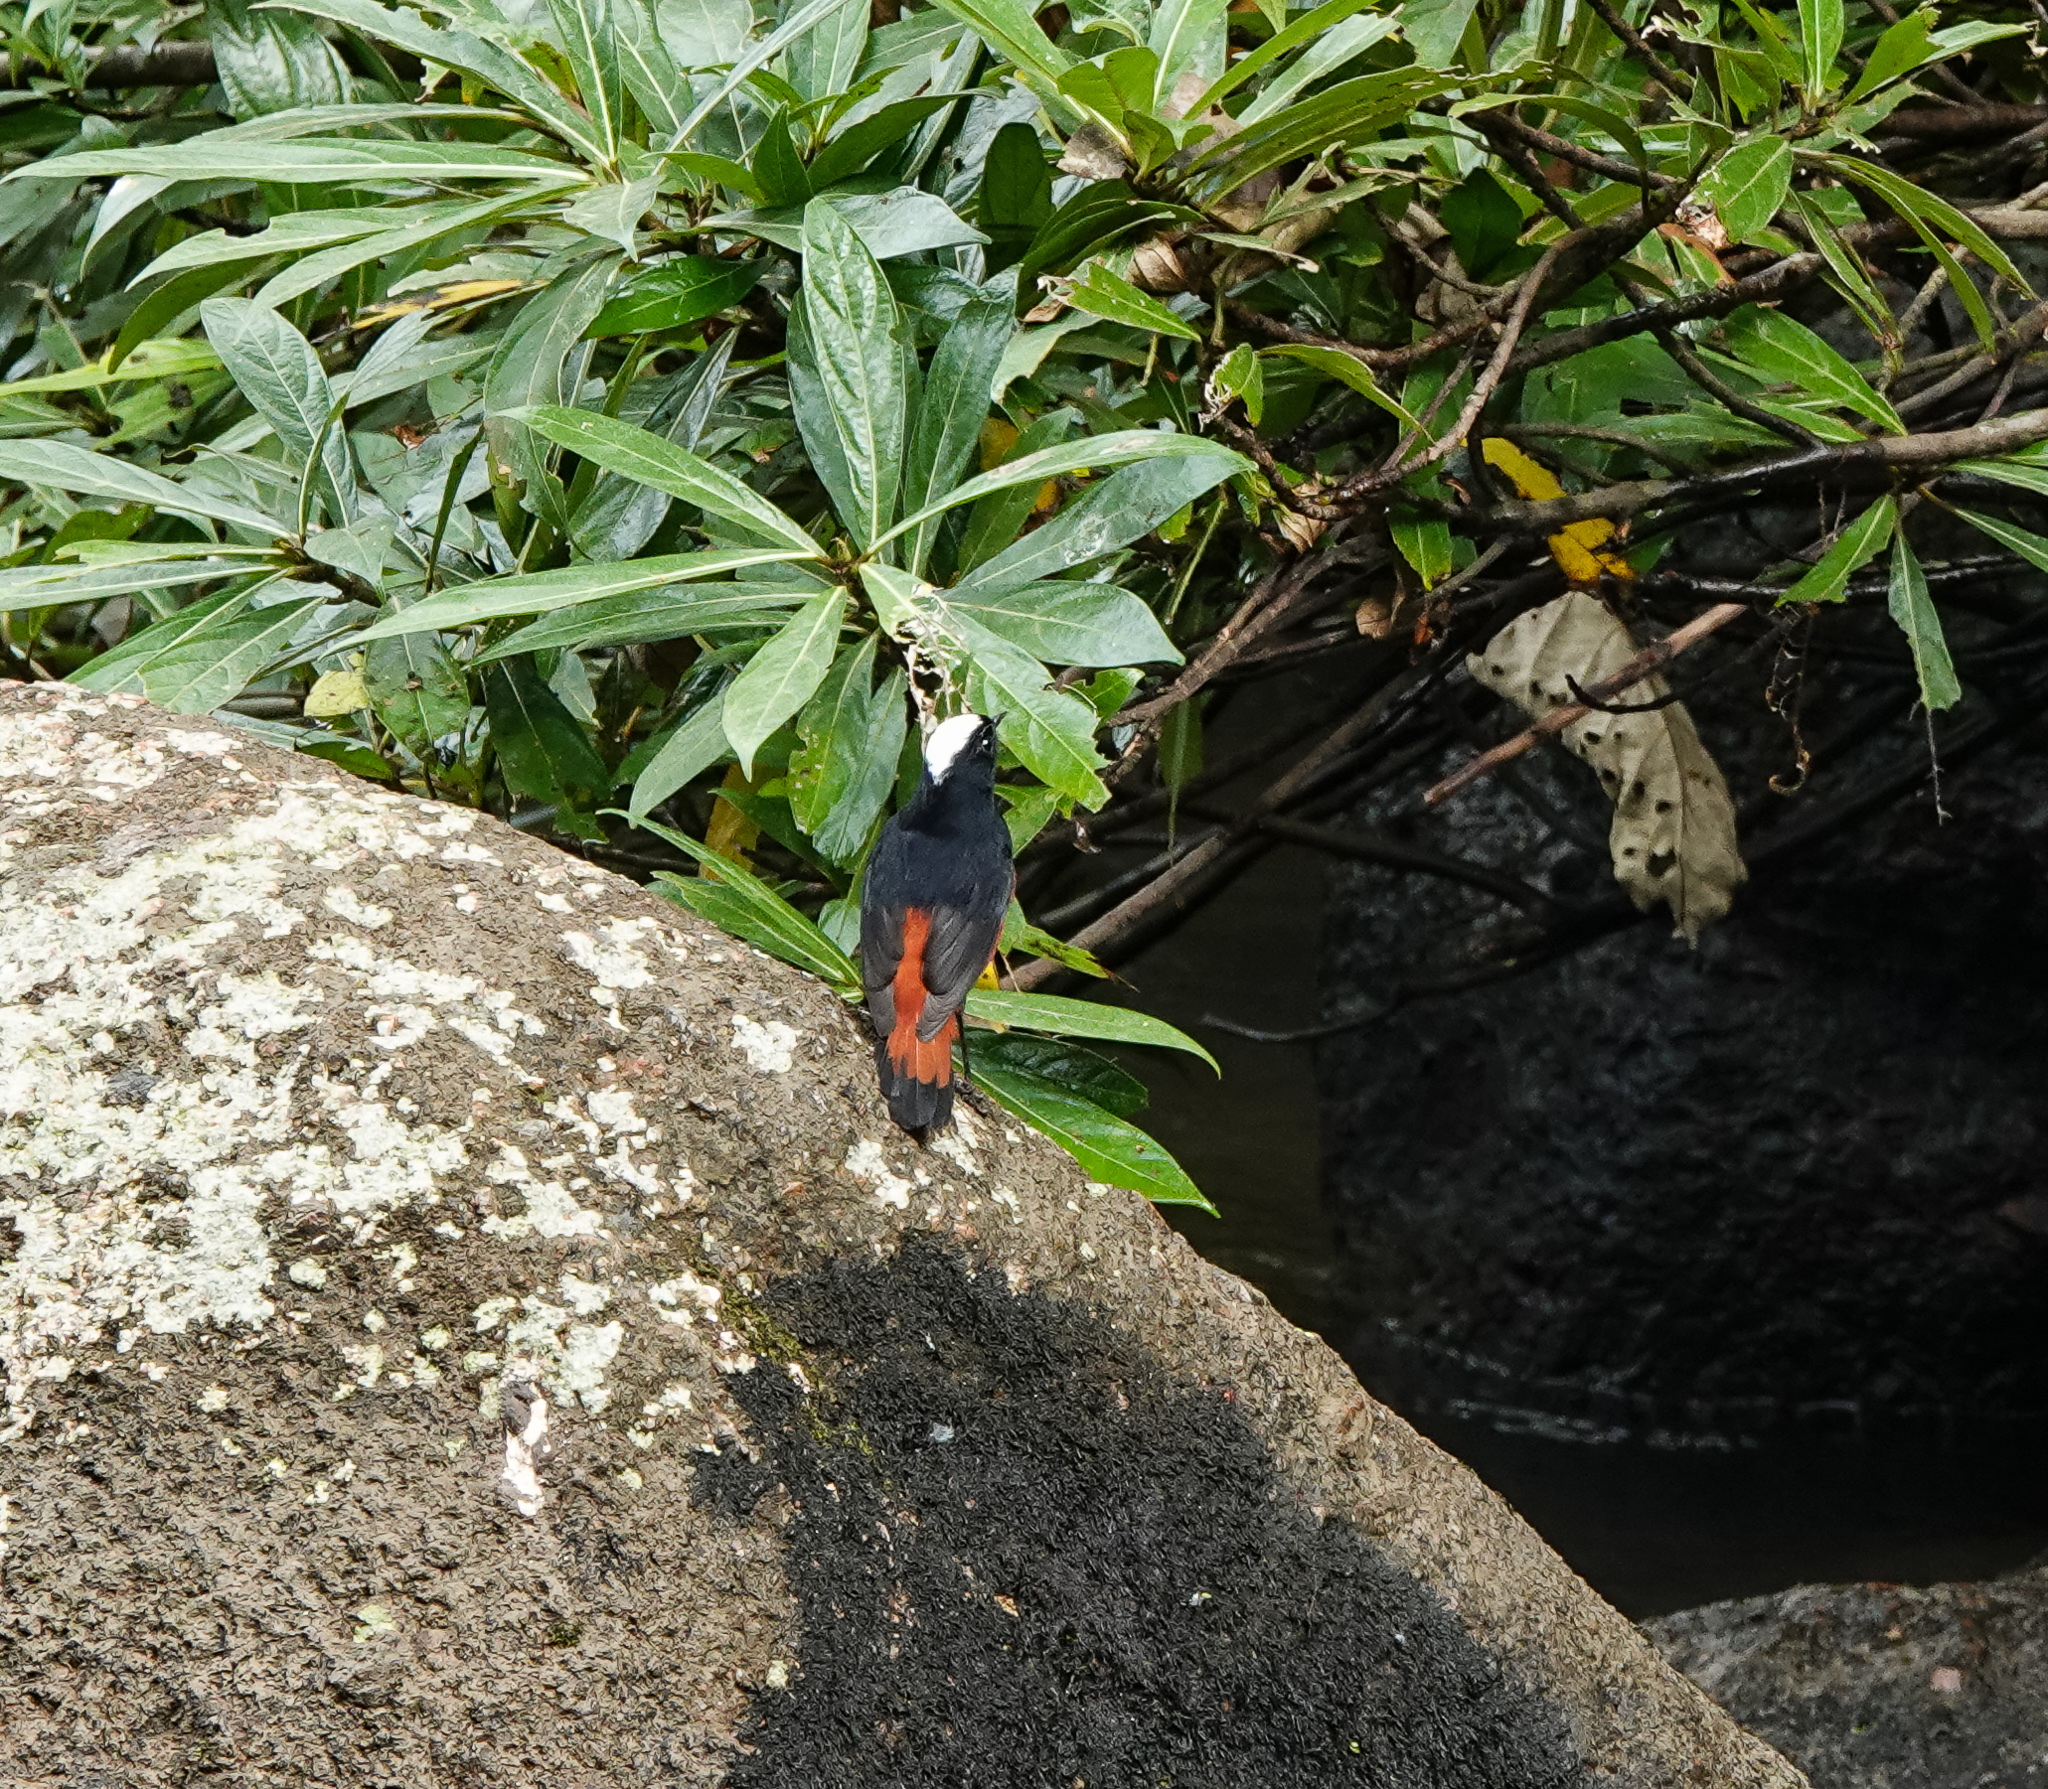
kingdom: Animalia
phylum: Chordata
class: Aves
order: Passeriformes
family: Muscicapidae
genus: Chaimarrornis
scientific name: Chaimarrornis leucocephalus
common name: White-capped redstart
